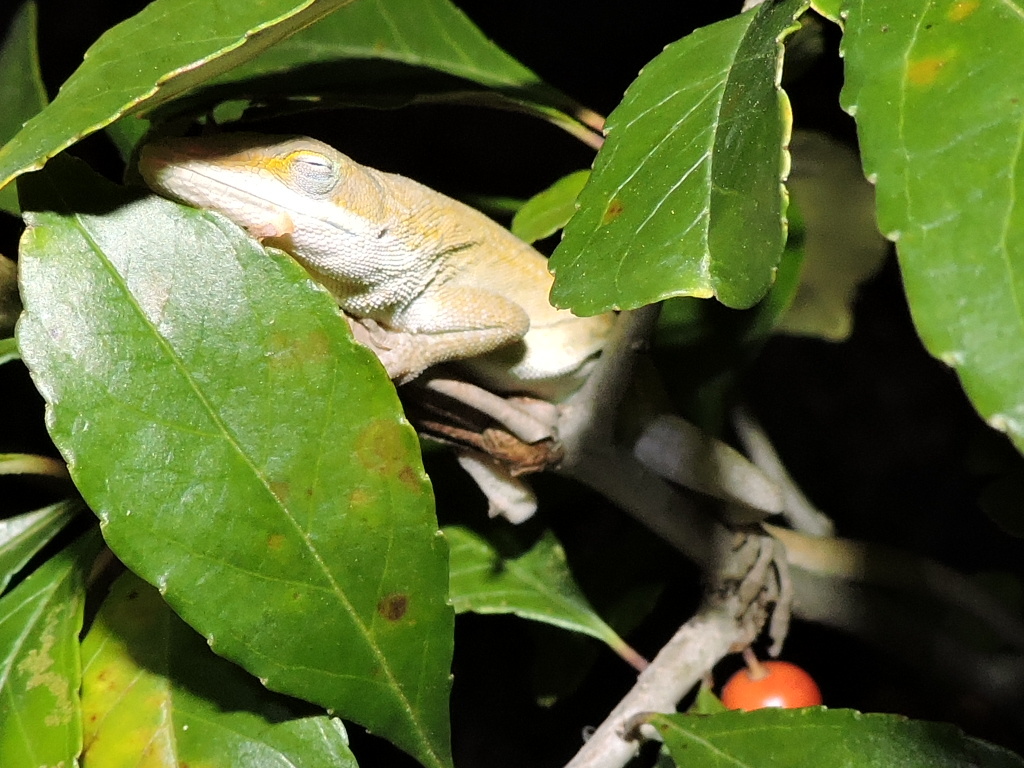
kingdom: Animalia
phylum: Chordata
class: Squamata
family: Dactyloidae
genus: Anolis
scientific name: Anolis carolinensis
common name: Green anole
